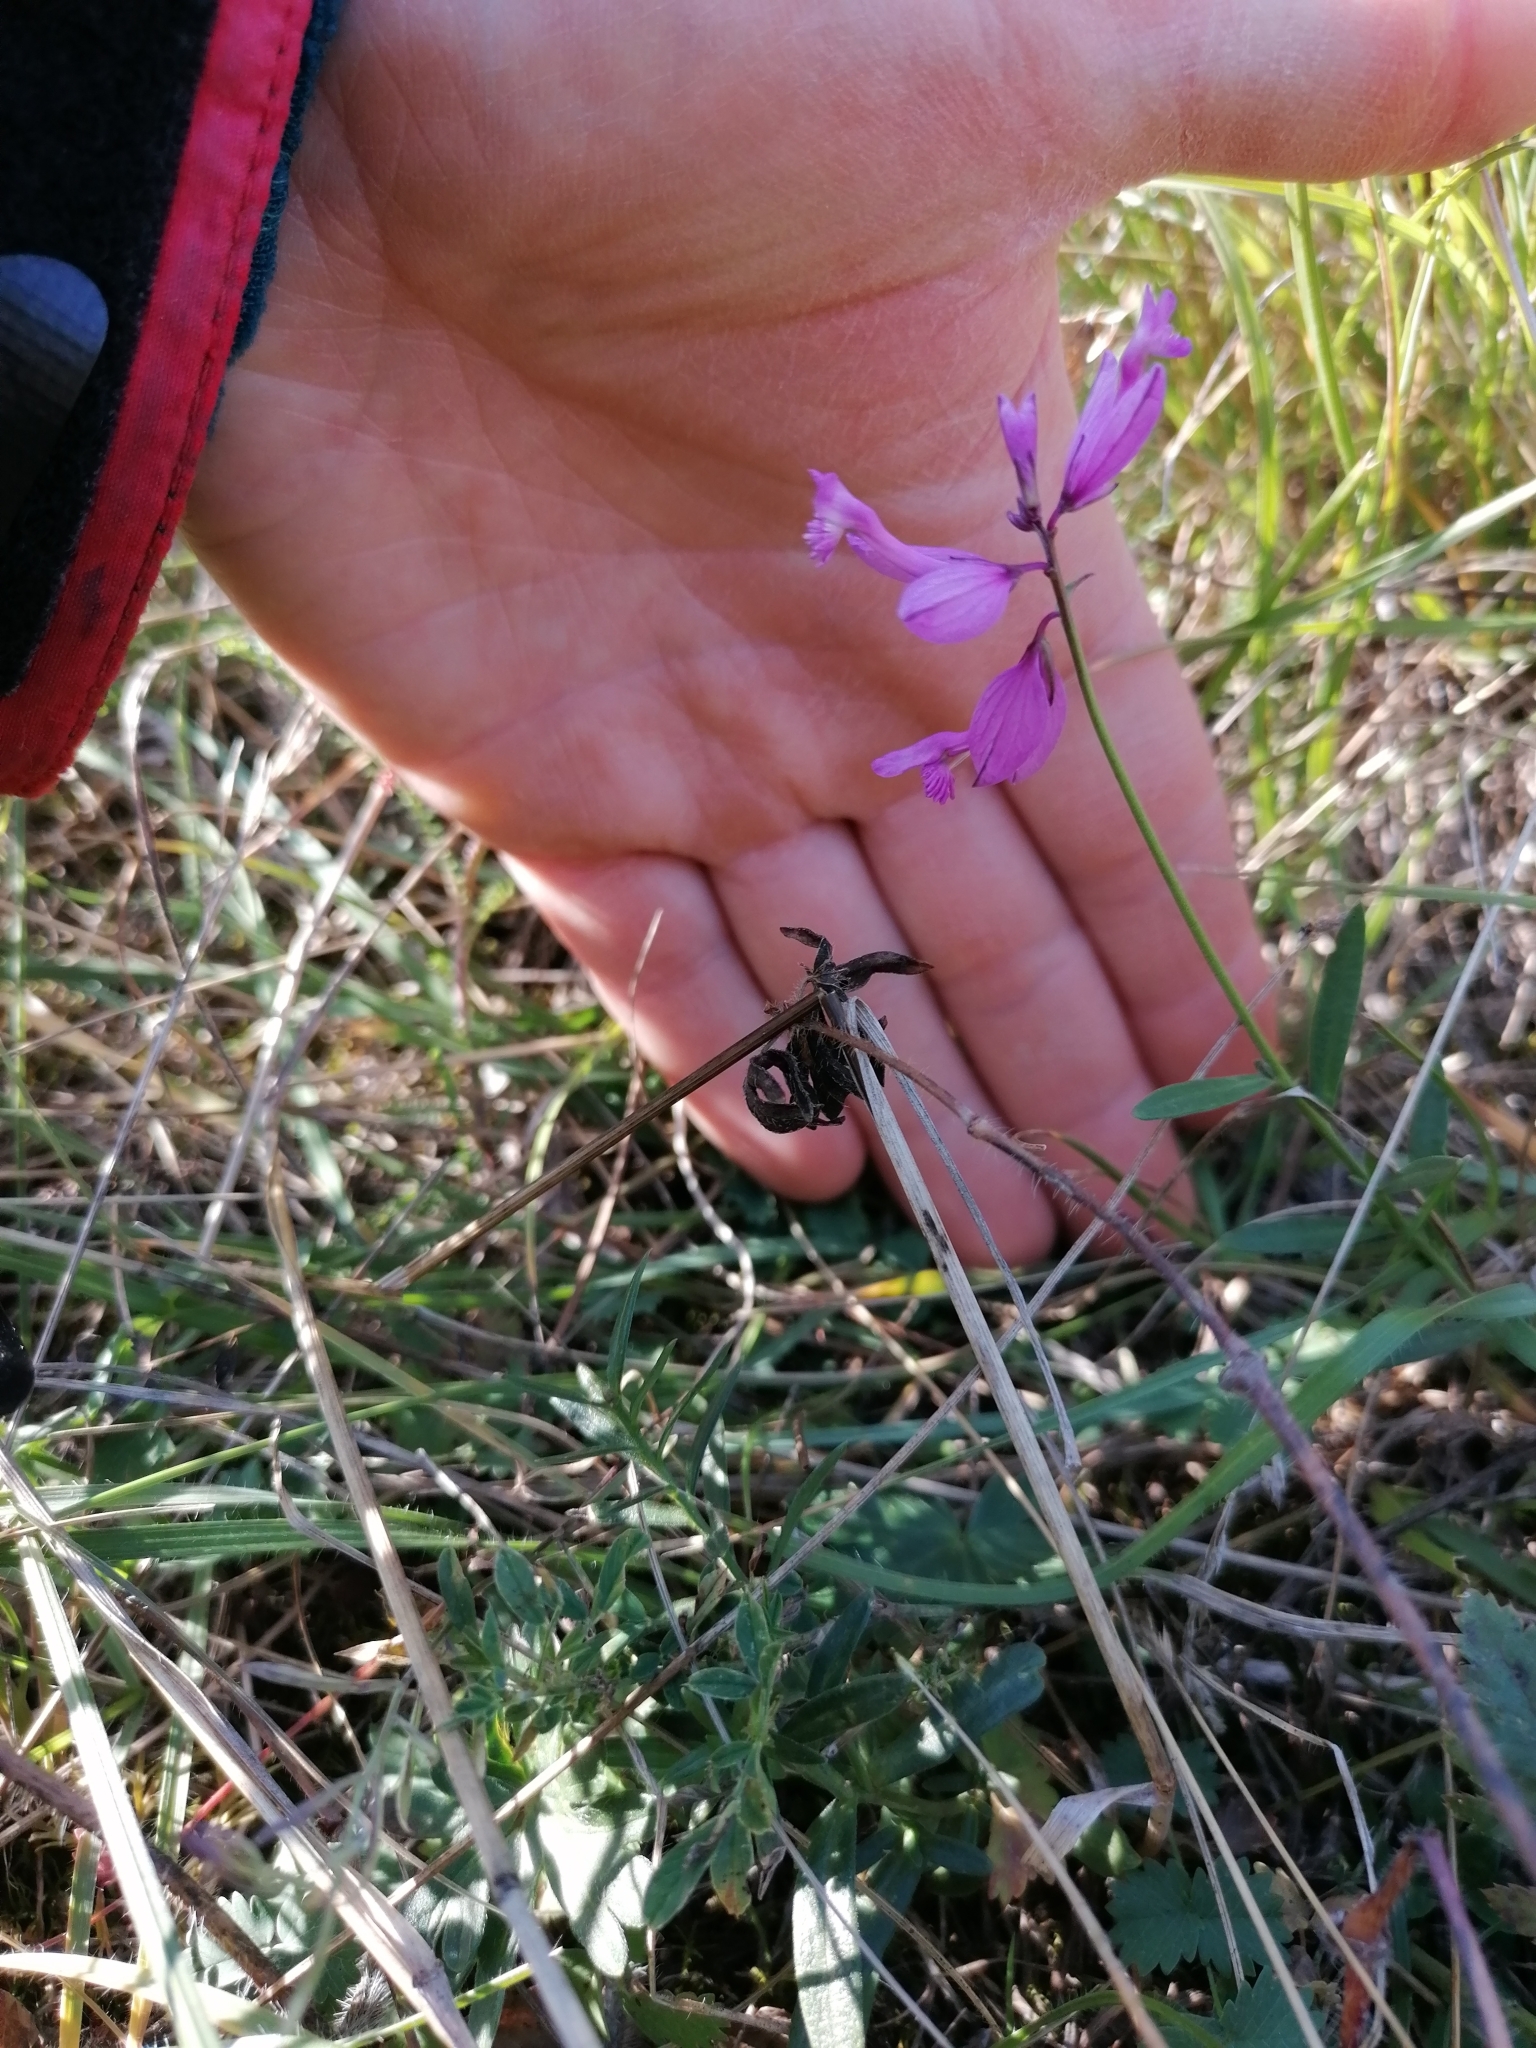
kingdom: Plantae
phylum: Tracheophyta
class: Magnoliopsida
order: Fabales
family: Polygalaceae
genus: Polygala
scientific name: Polygala major
